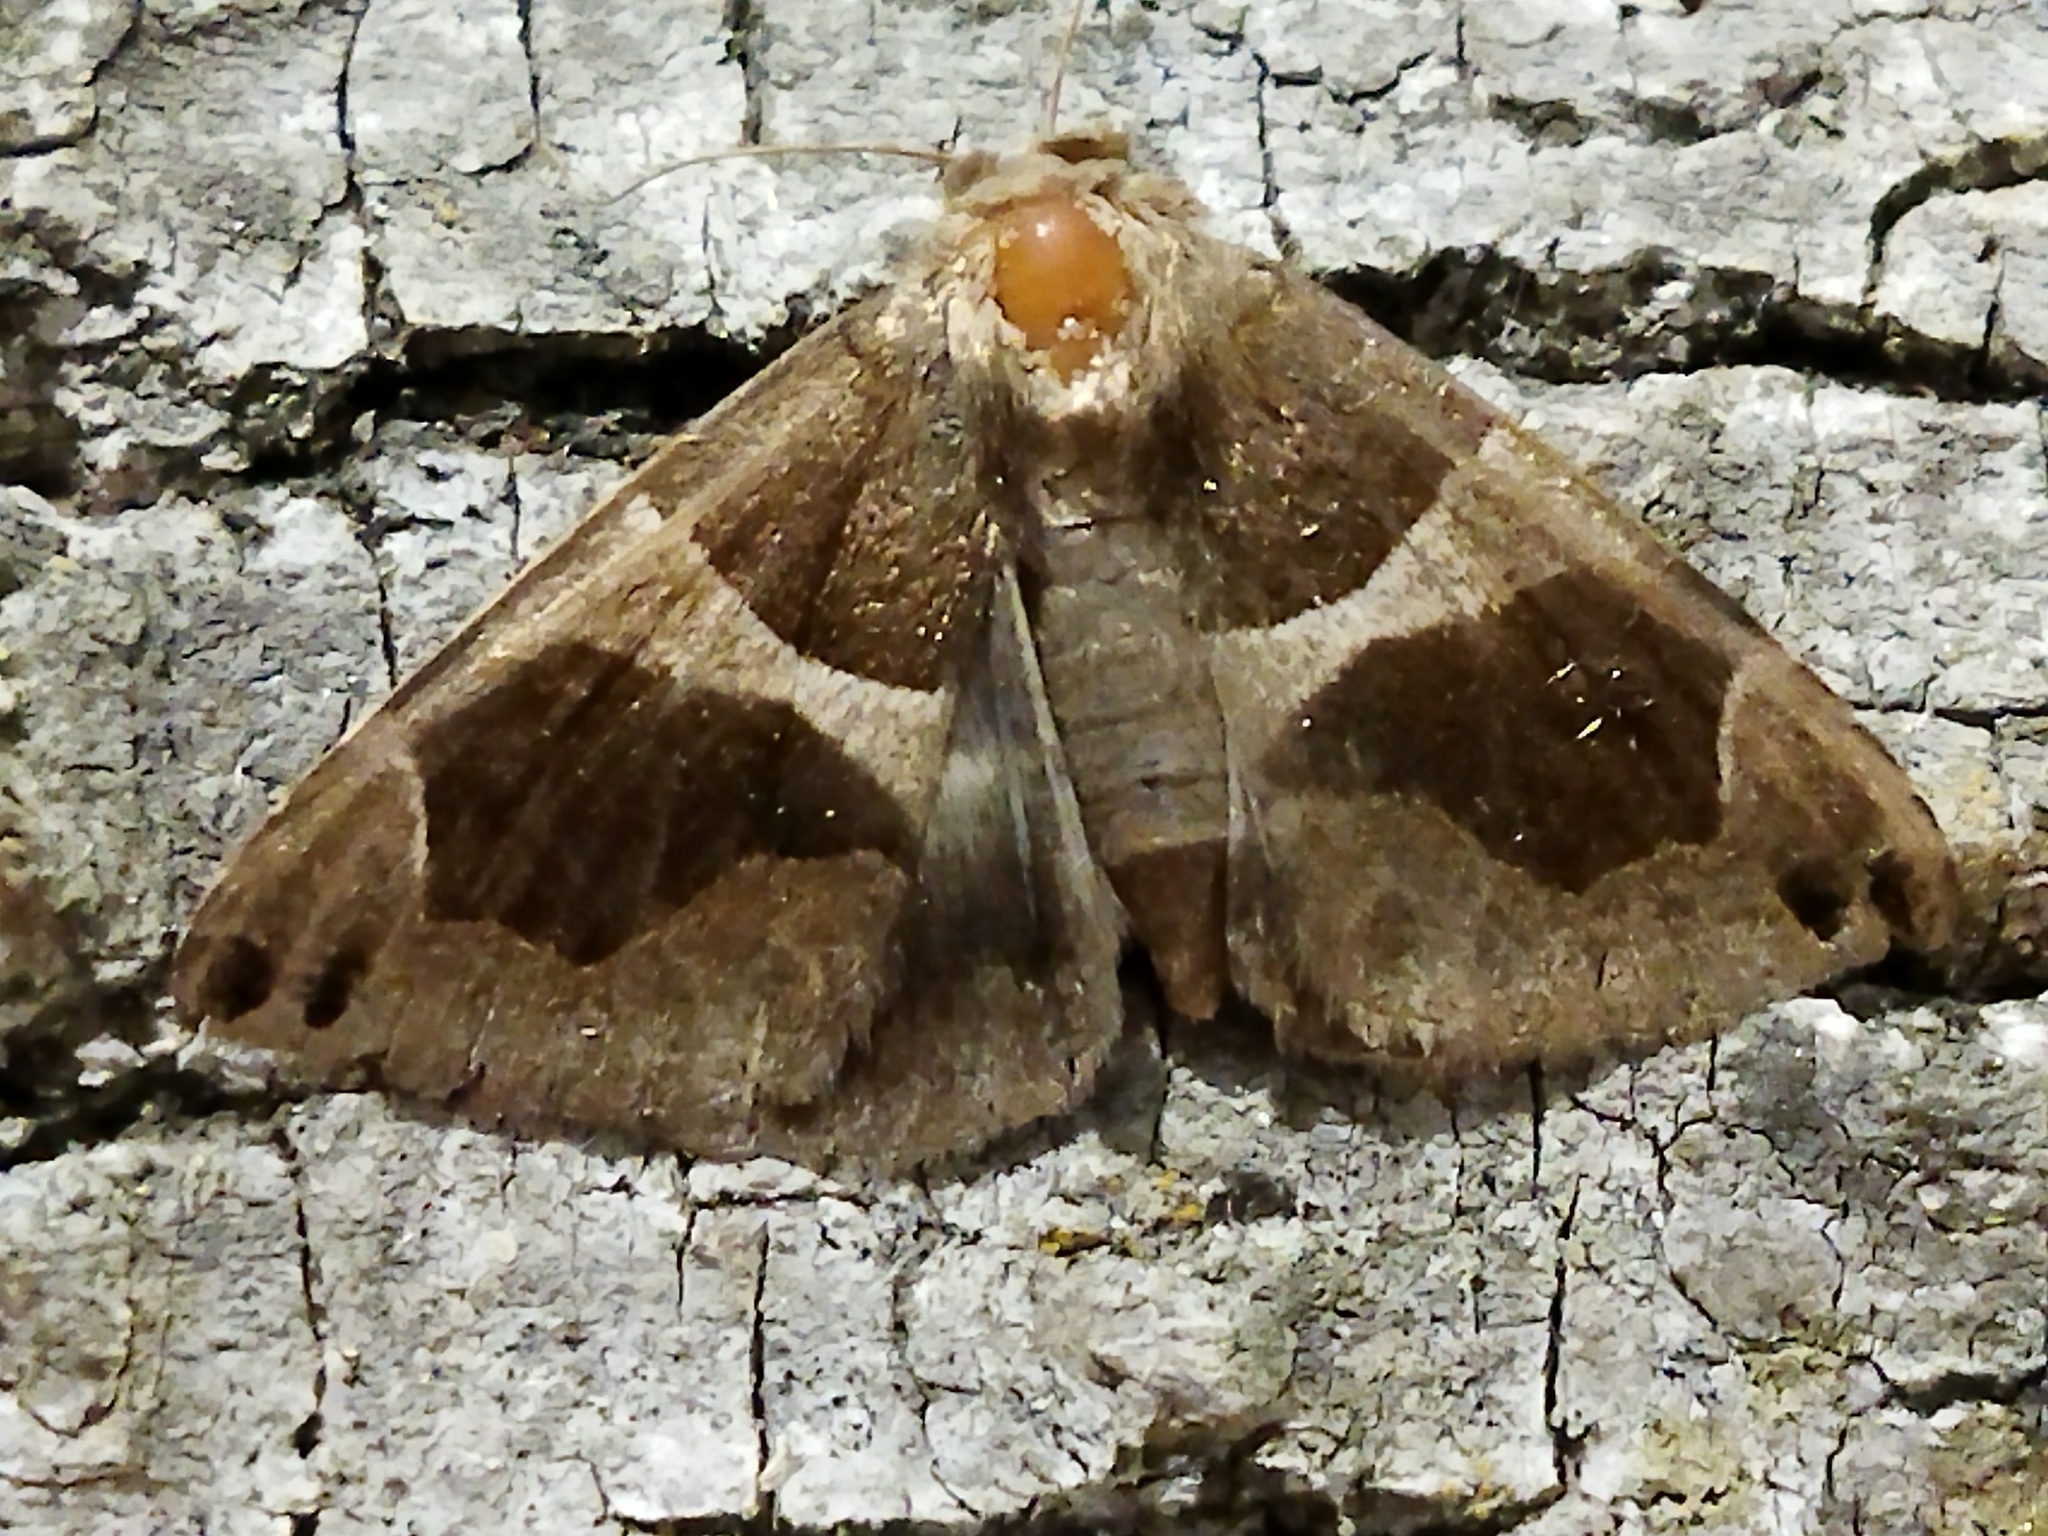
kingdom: Animalia
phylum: Arthropoda
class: Insecta
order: Lepidoptera
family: Erebidae
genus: Dysgonia
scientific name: Dysgonia algira
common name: Passenger
